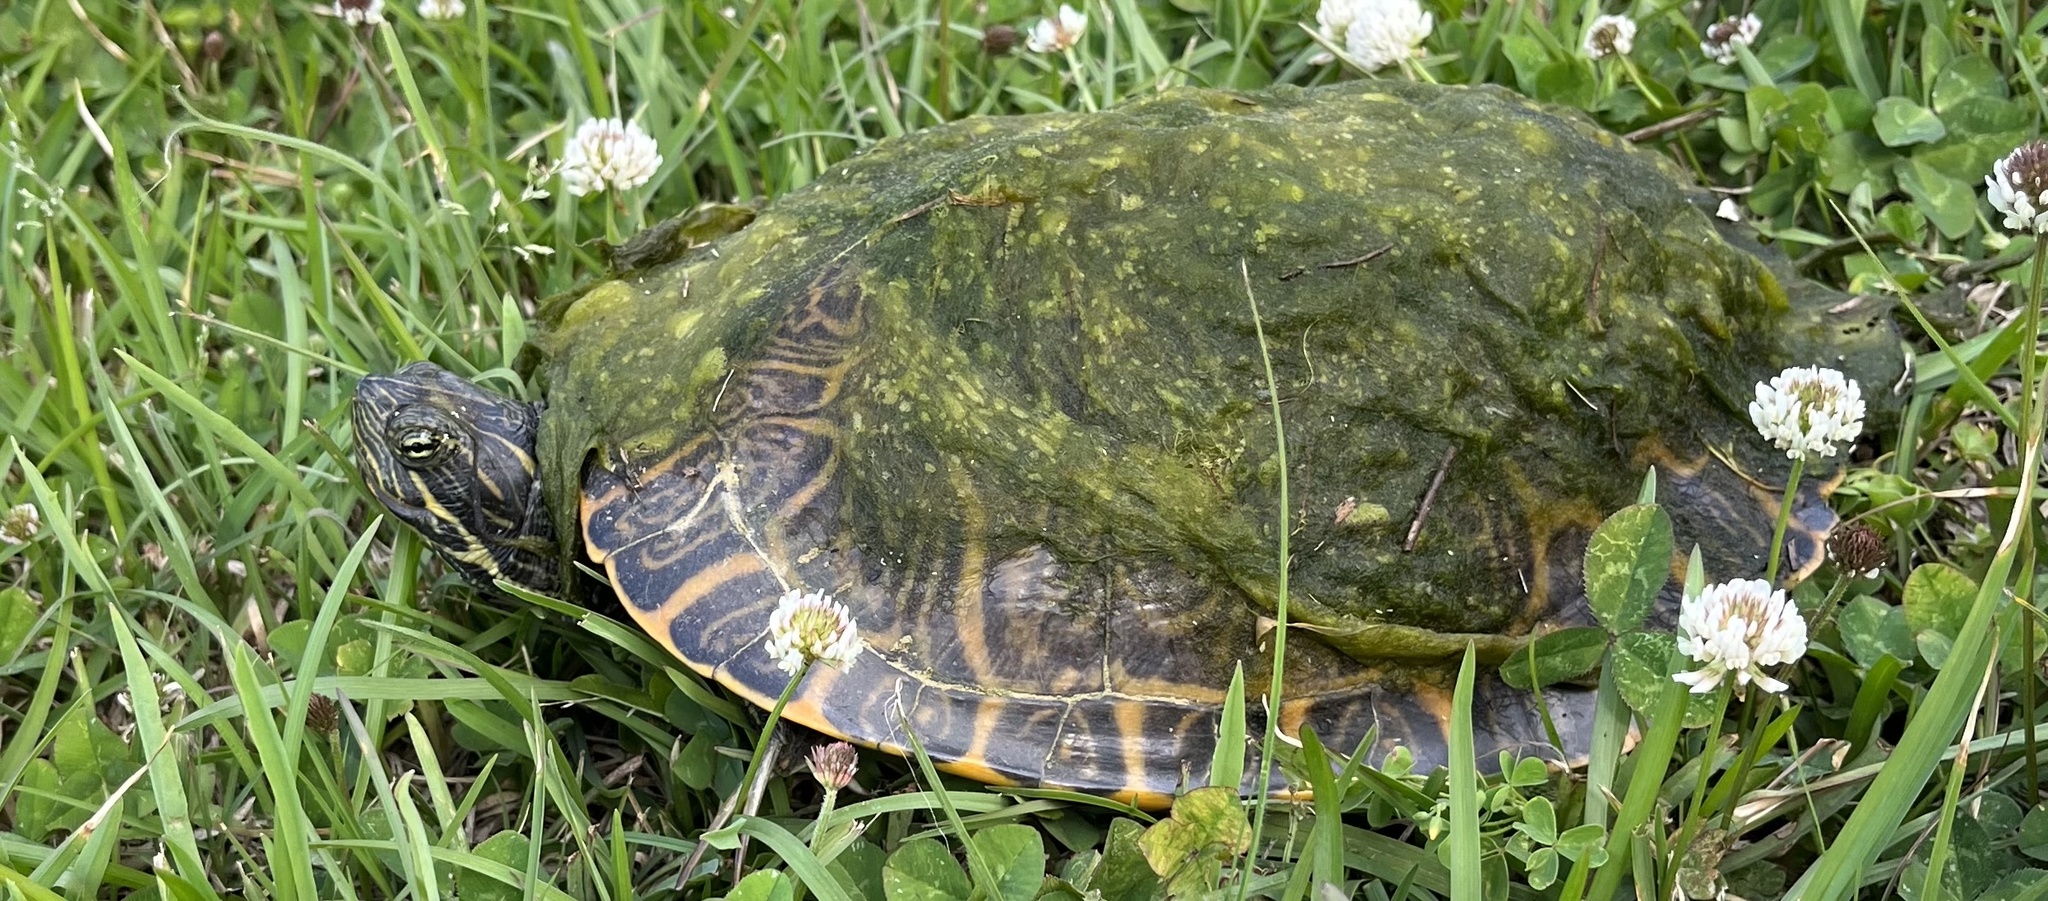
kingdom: Animalia
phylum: Chordata
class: Testudines
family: Emydidae
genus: Pseudemys
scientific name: Pseudemys concinna
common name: Eastern river cooter
